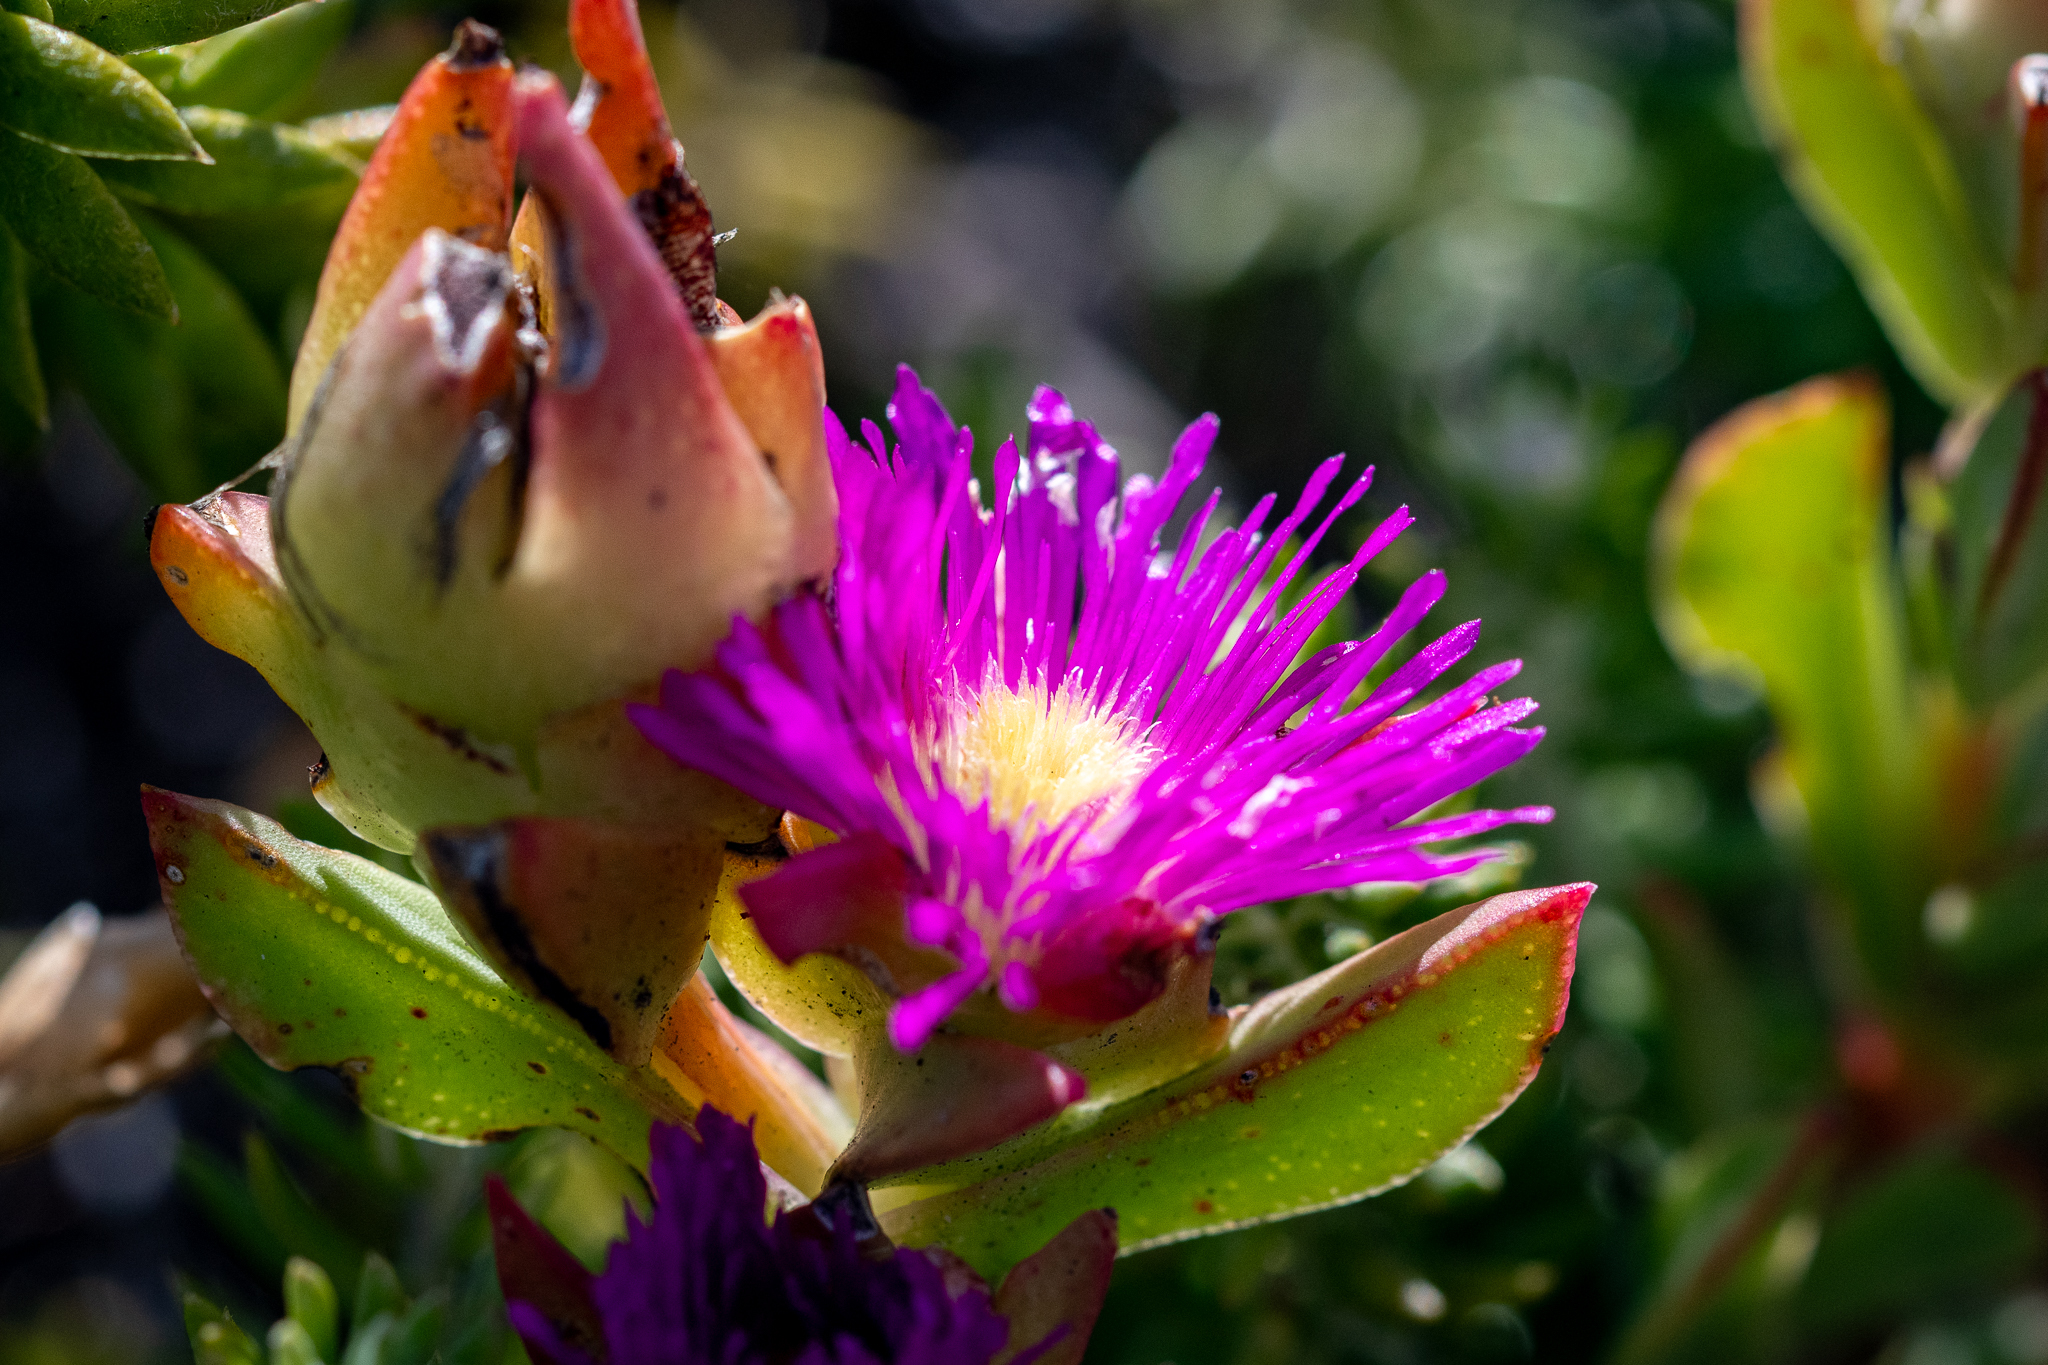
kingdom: Plantae
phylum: Tracheophyta
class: Magnoliopsida
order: Caryophyllales
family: Aizoaceae
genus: Erepsia
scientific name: Erepsia steytlerae
